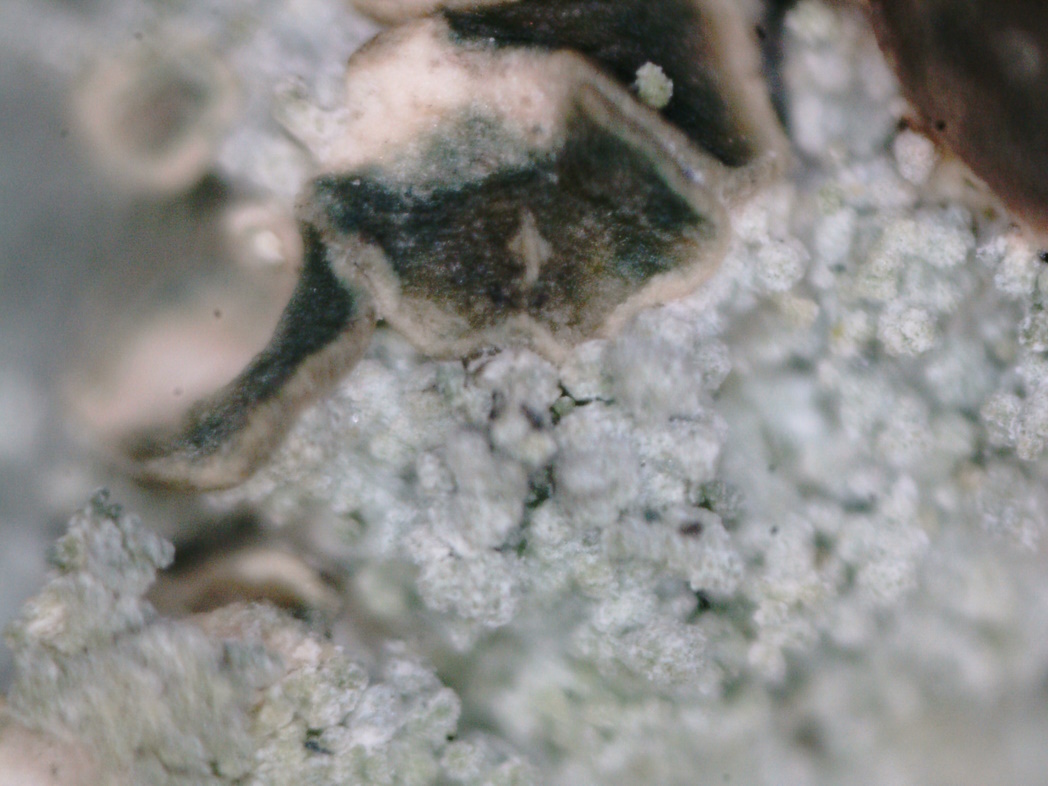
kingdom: Fungi
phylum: Ascomycota
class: Lecanoromycetes
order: Baeomycetales
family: Trapeliaceae
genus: Trapeliopsis
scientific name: Trapeliopsis granulosa
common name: Granular mottled-disk lichen
